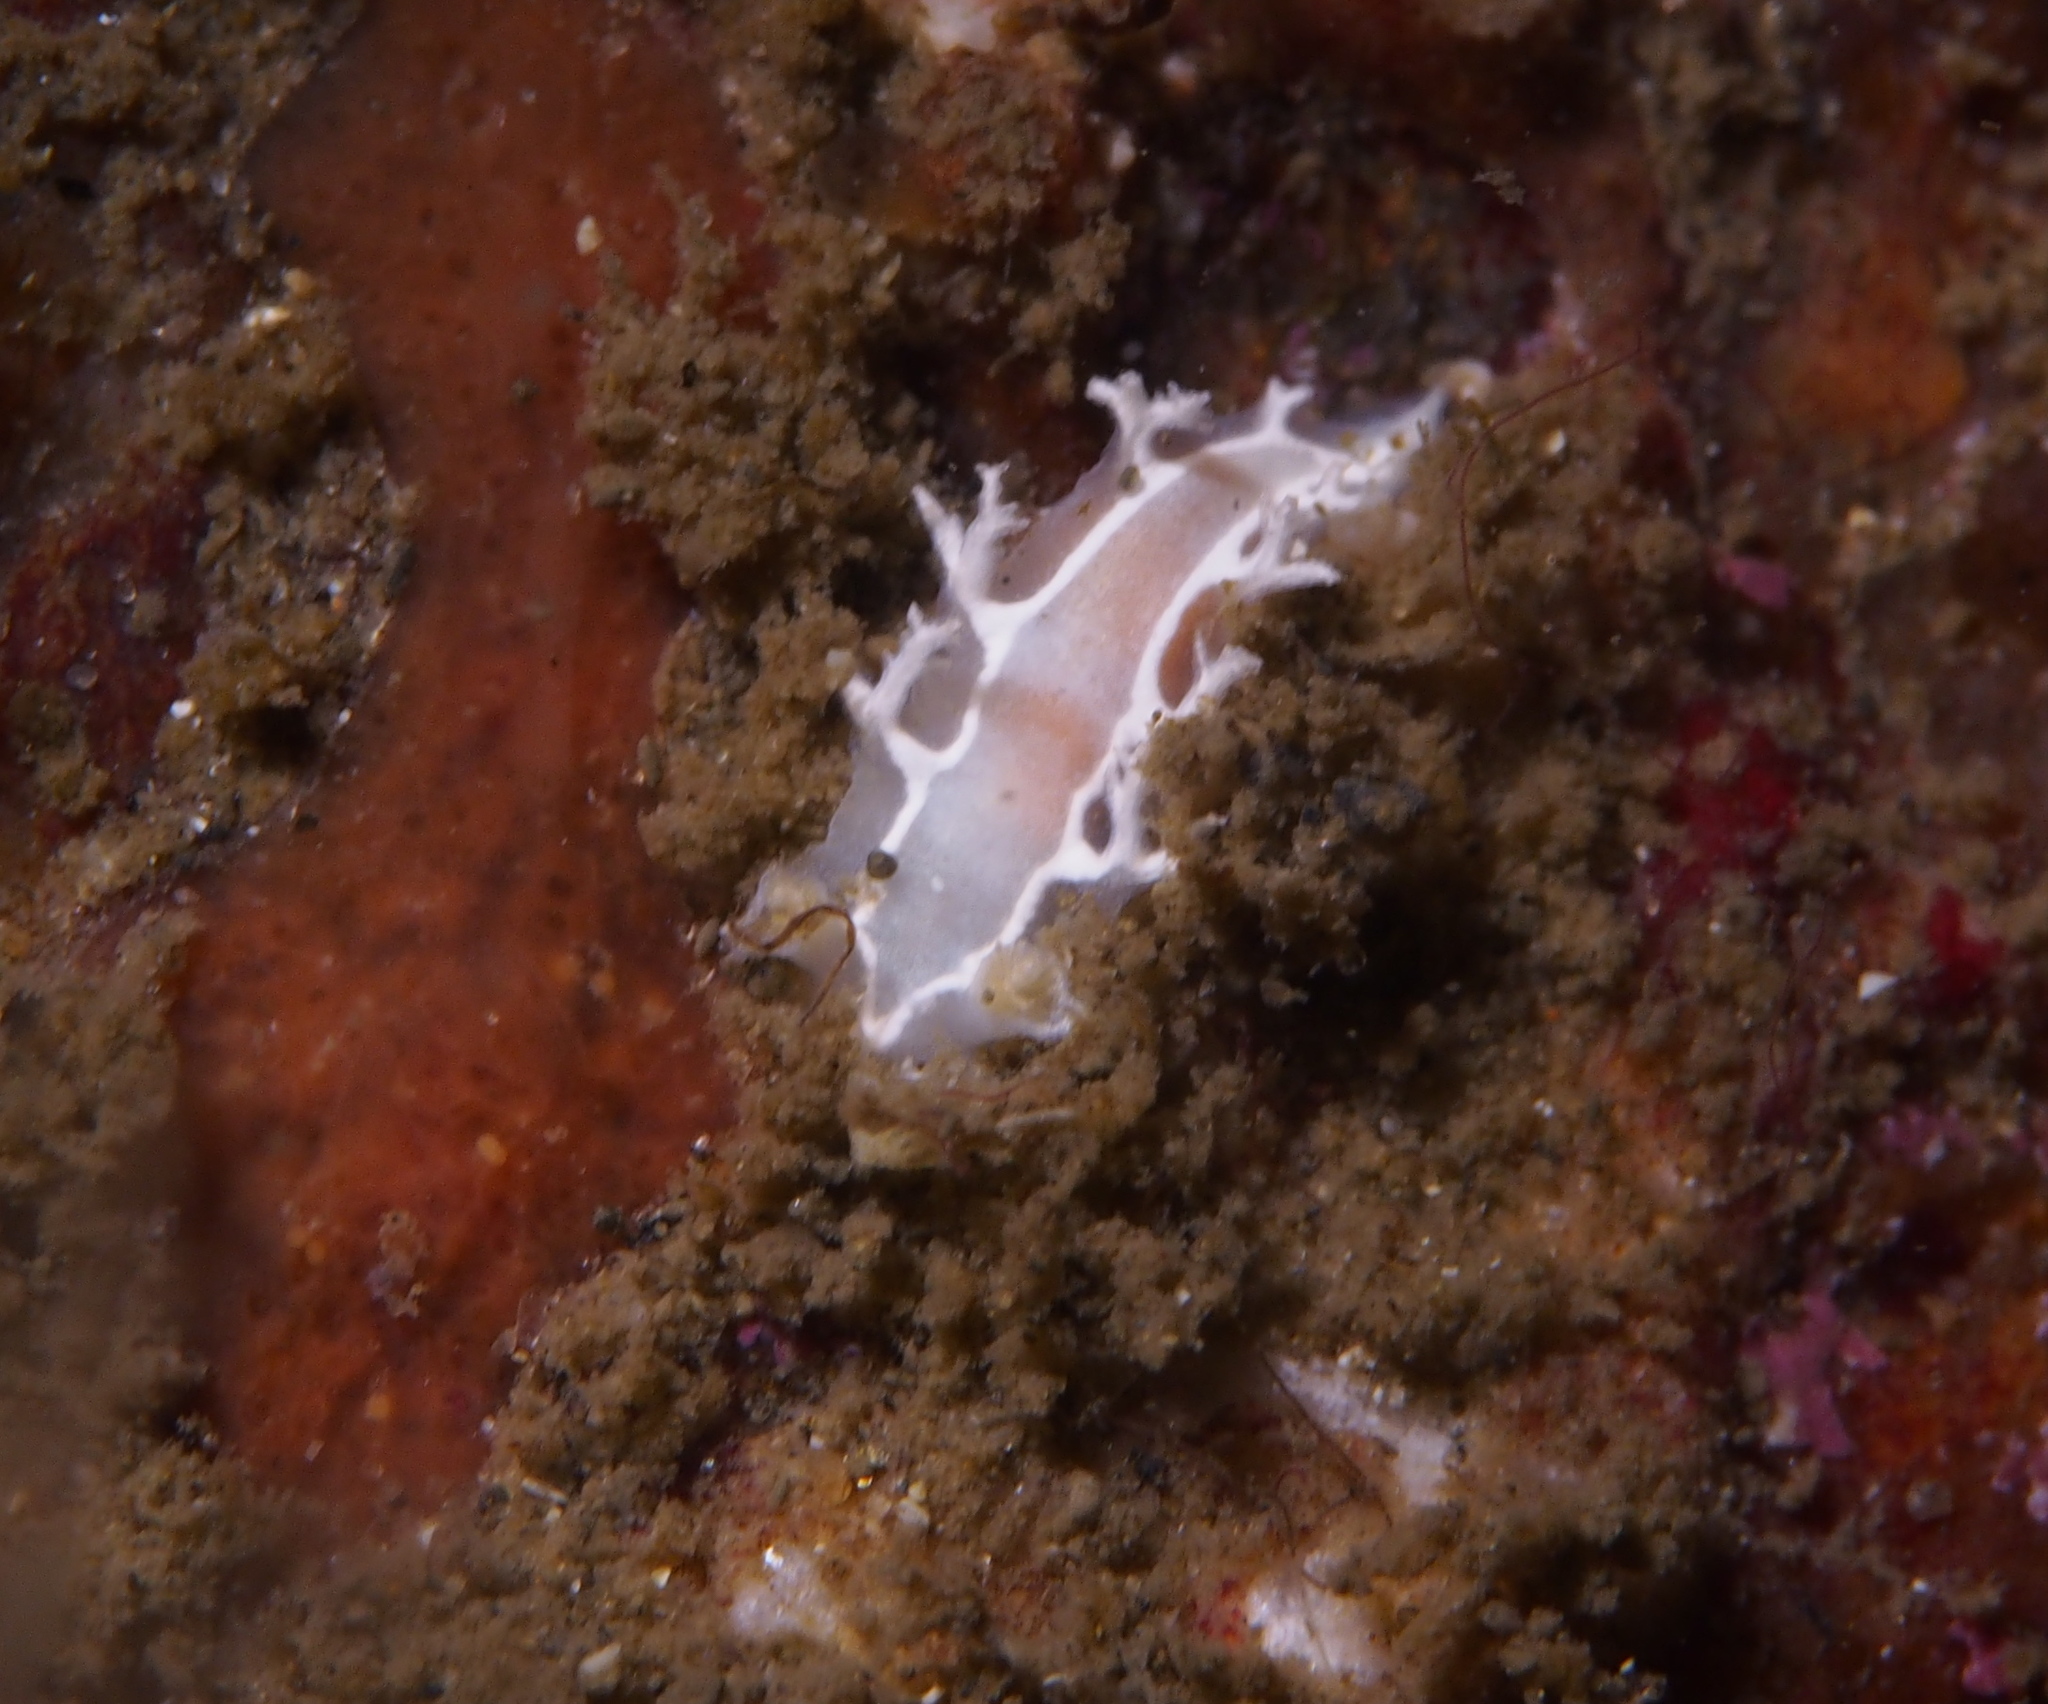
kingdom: Animalia
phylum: Mollusca
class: Gastropoda
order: Nudibranchia
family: Tritoniidae
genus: Duvaucelia
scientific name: Duvaucelia lineata
